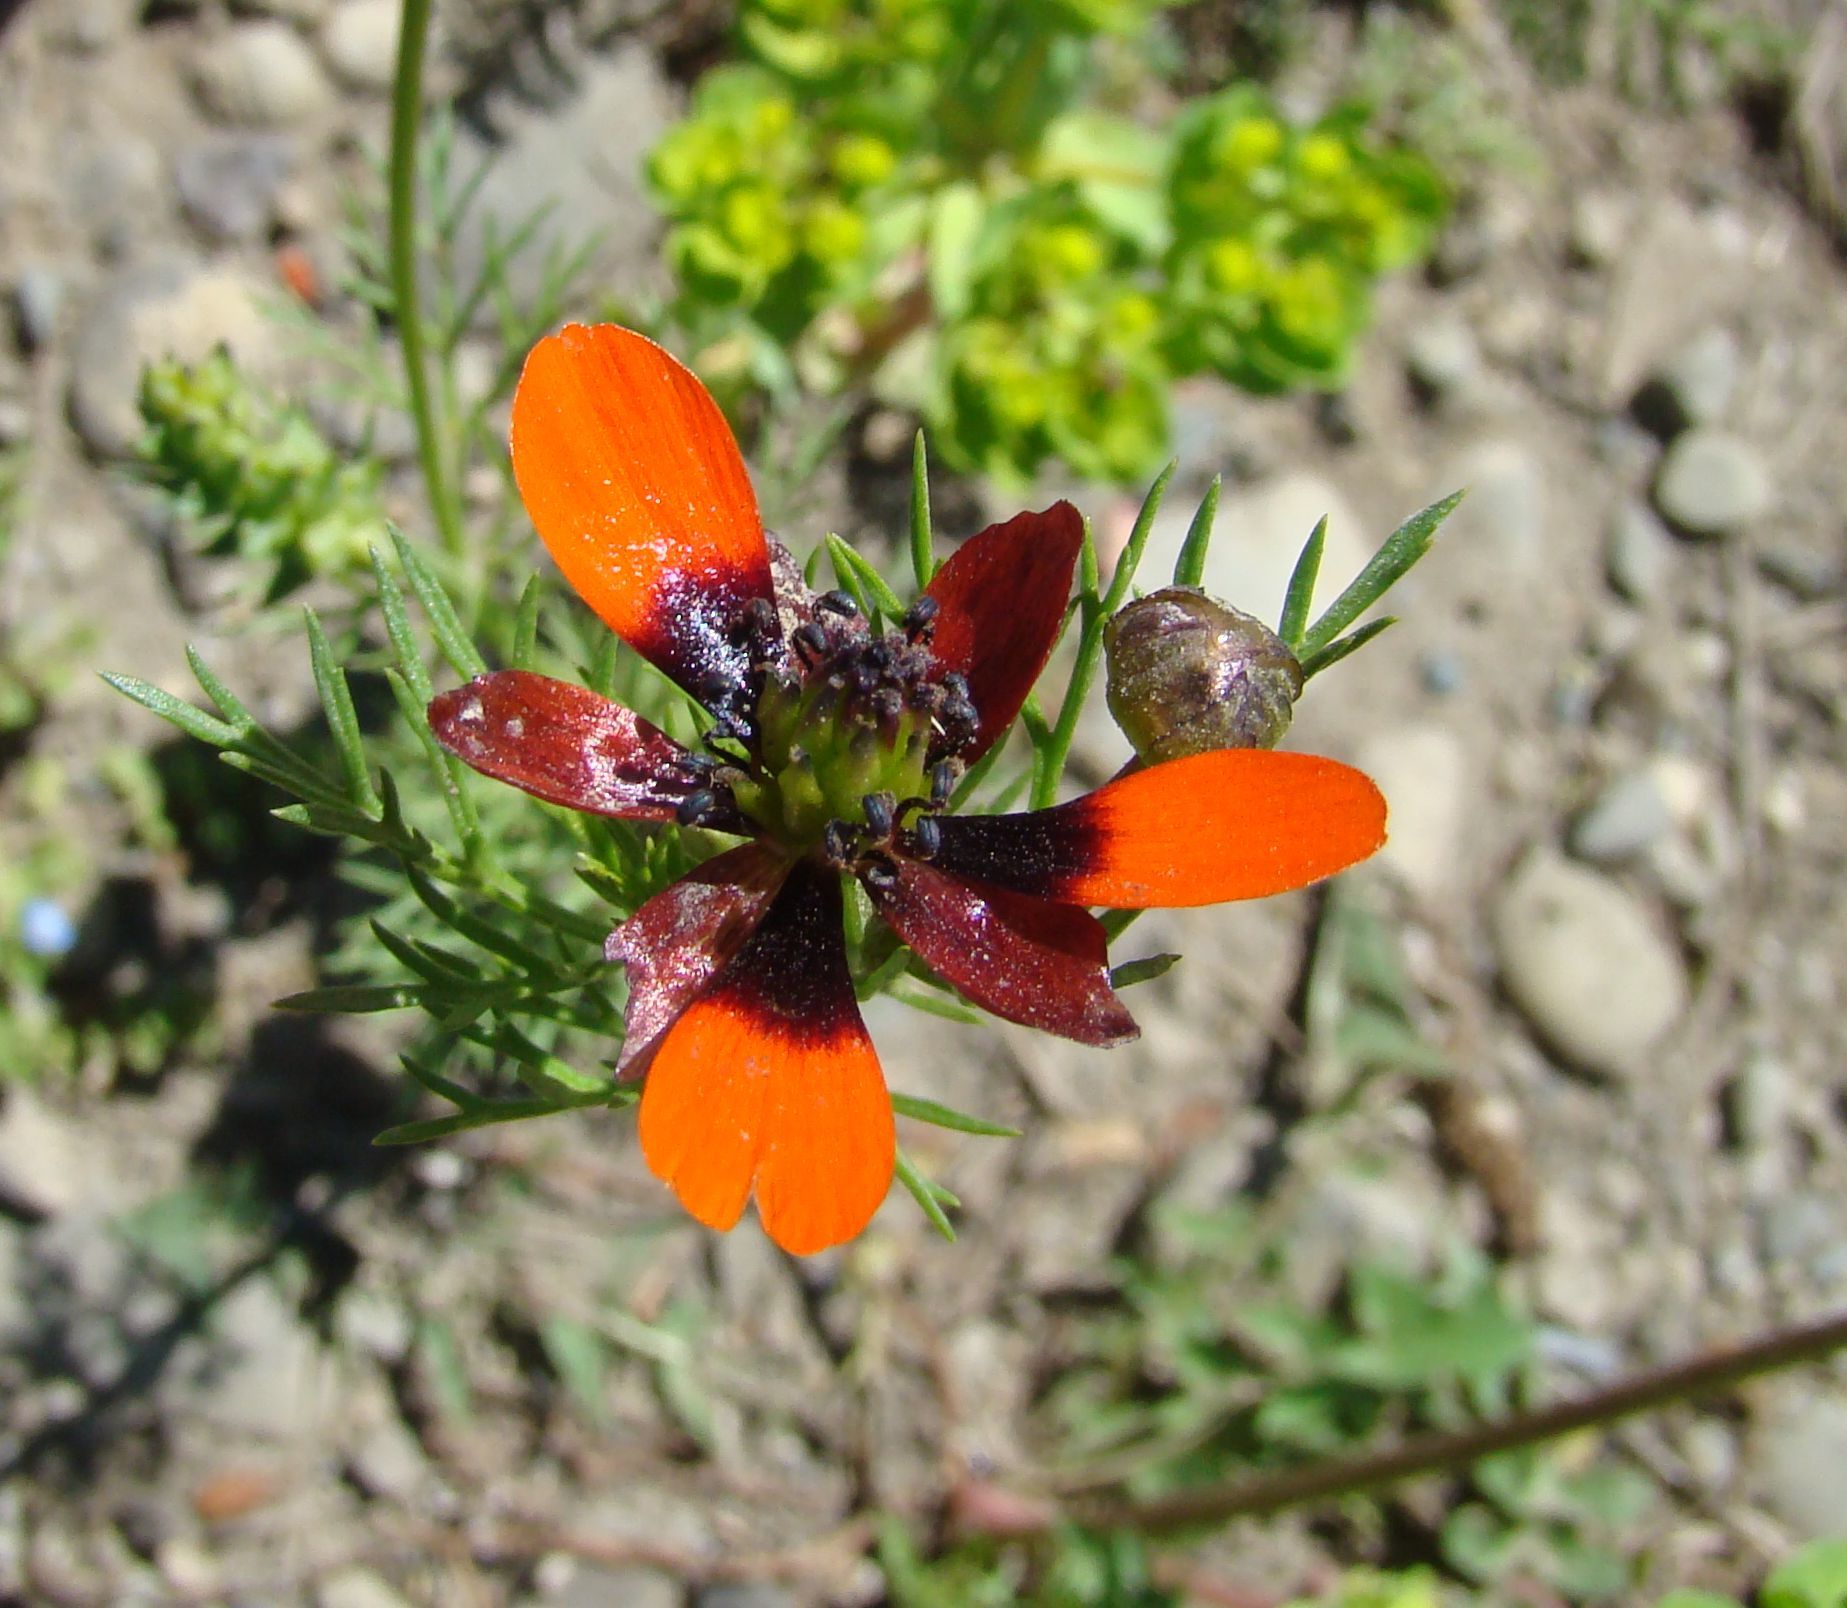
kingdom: Plantae
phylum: Tracheophyta
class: Magnoliopsida
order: Ranunculales
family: Ranunculaceae
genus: Adonis
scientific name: Adonis aestivalis
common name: Summer pheasant's-eye
